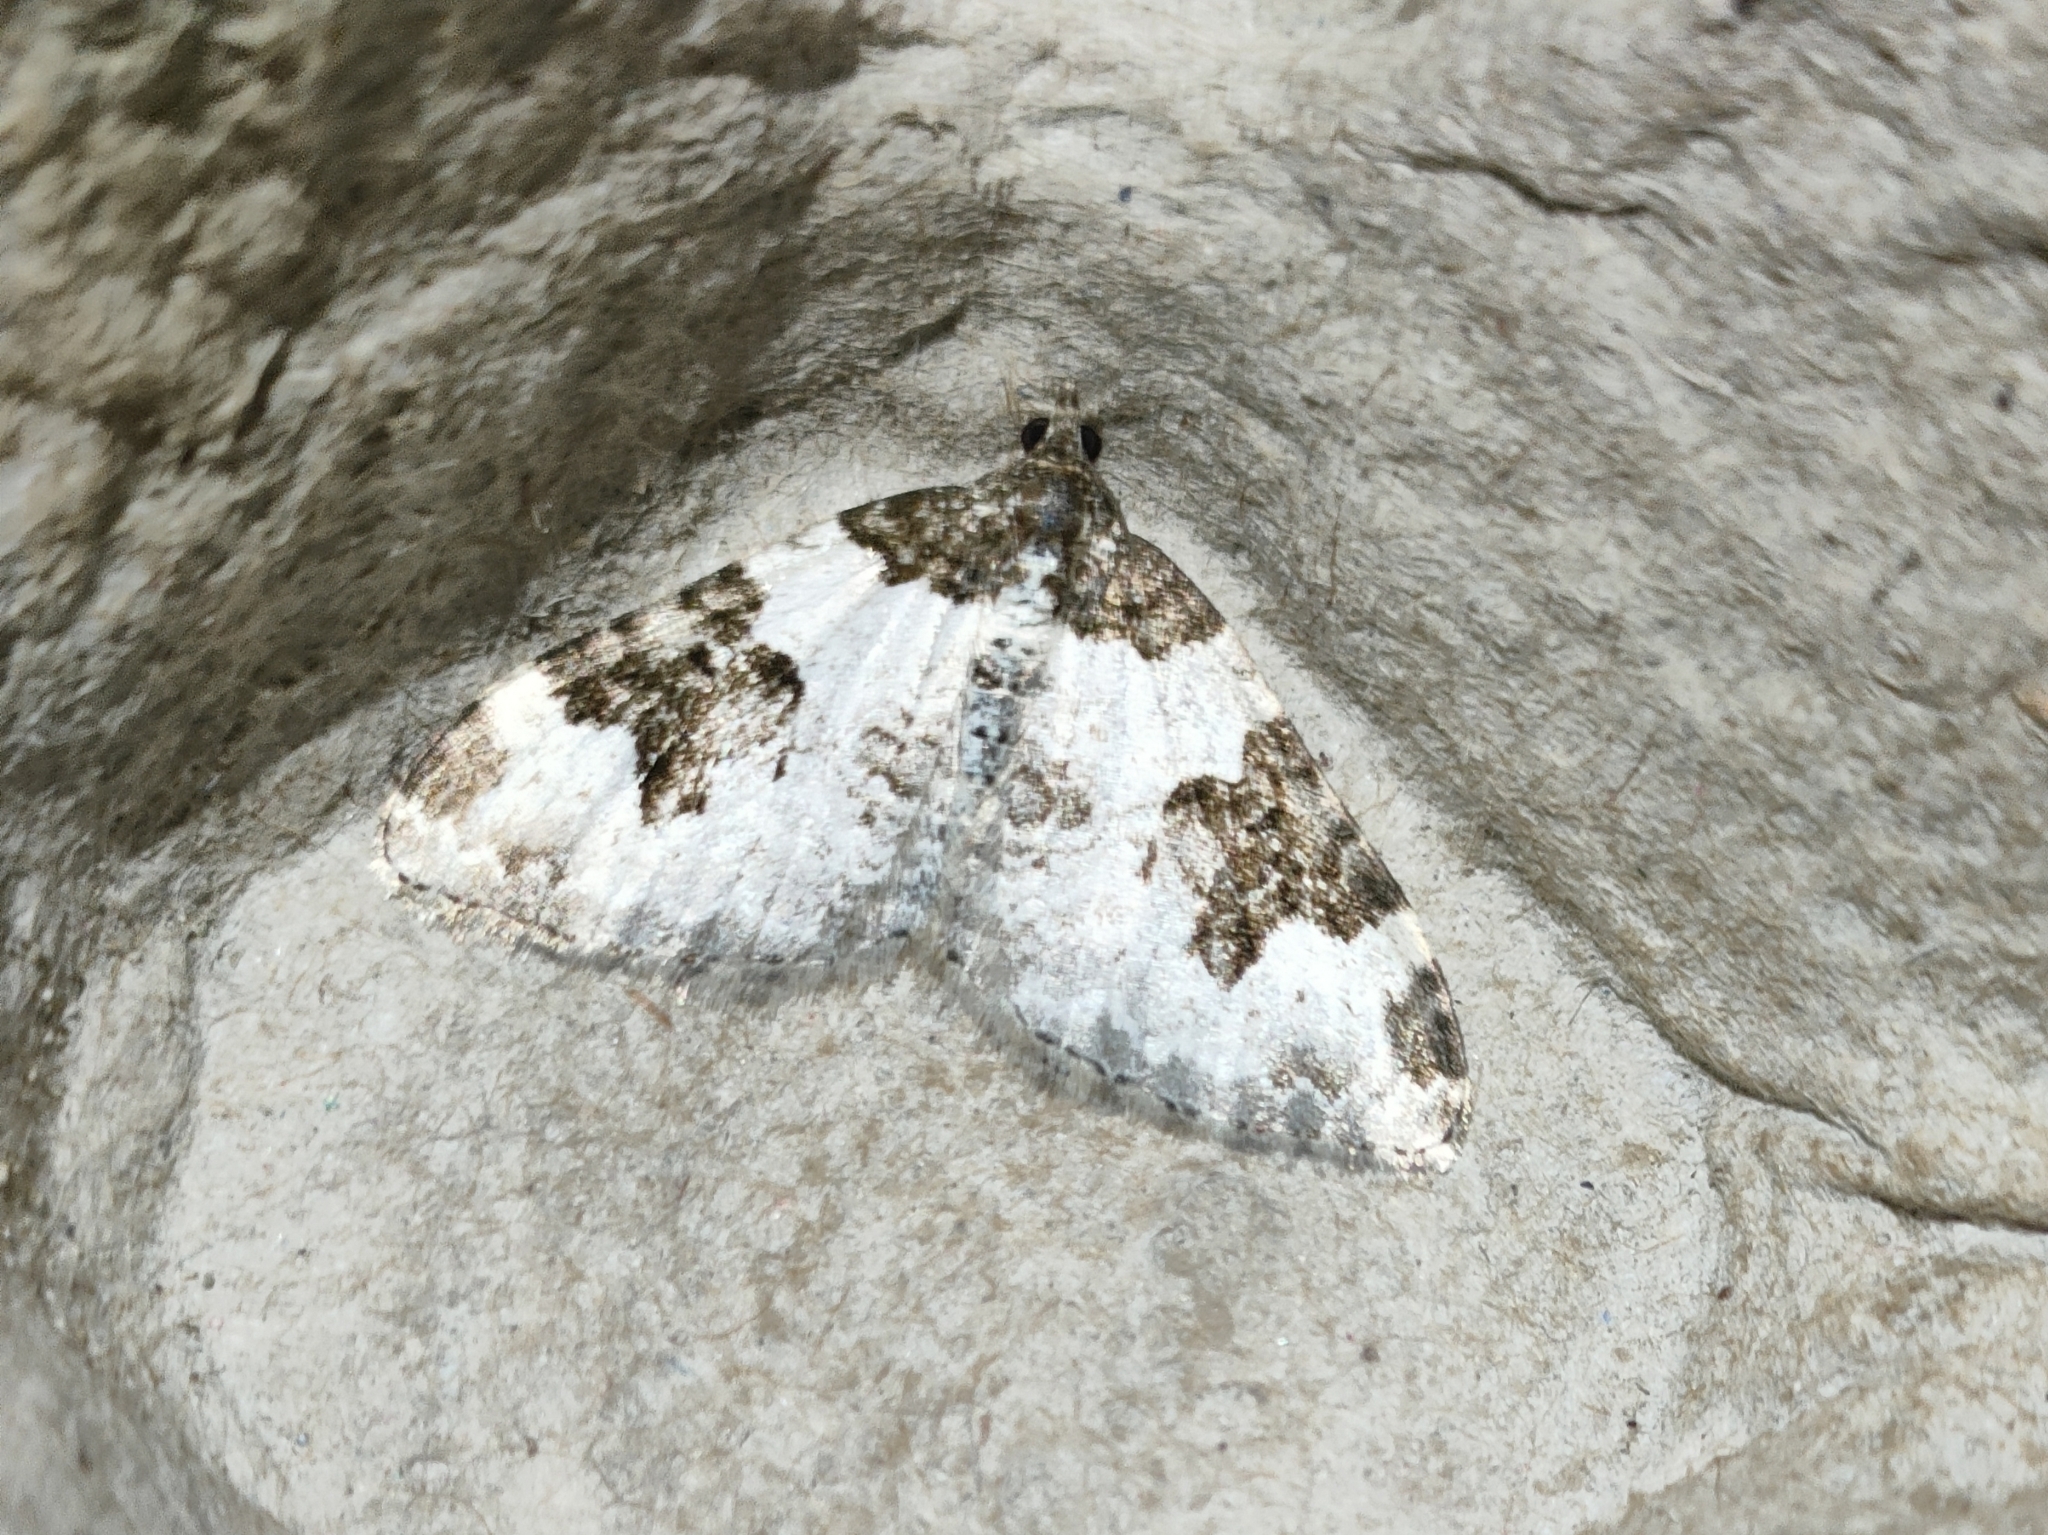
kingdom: Animalia
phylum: Arthropoda
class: Insecta
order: Lepidoptera
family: Geometridae
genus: Xanthorhoe
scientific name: Xanthorhoe fluctuata
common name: Garden carpet
